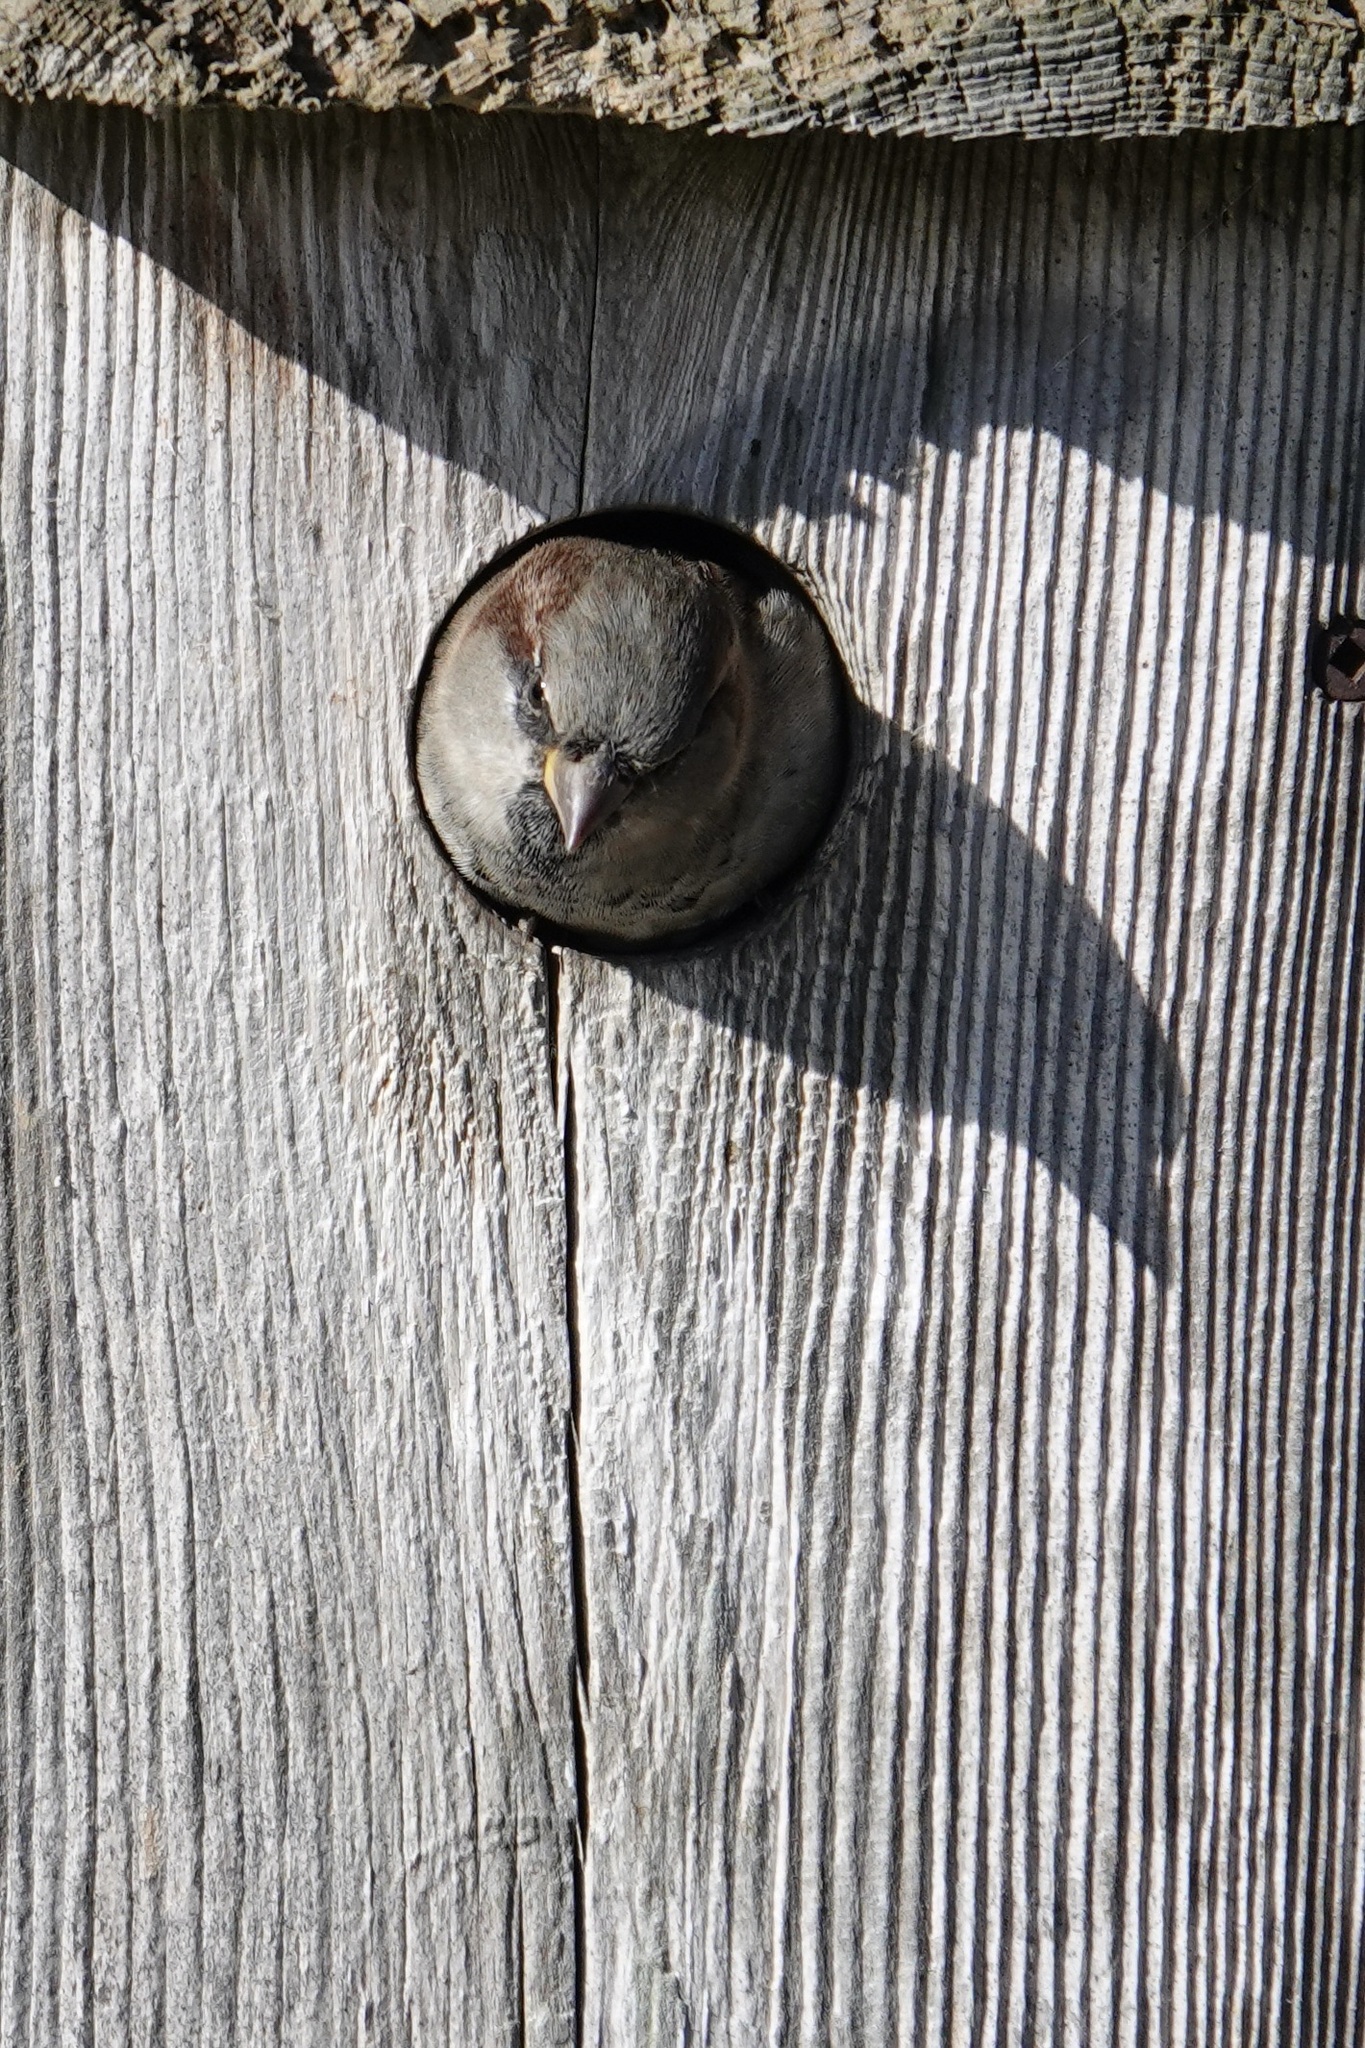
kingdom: Animalia
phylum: Chordata
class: Aves
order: Passeriformes
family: Passeridae
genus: Passer
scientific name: Passer domesticus
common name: House sparrow
